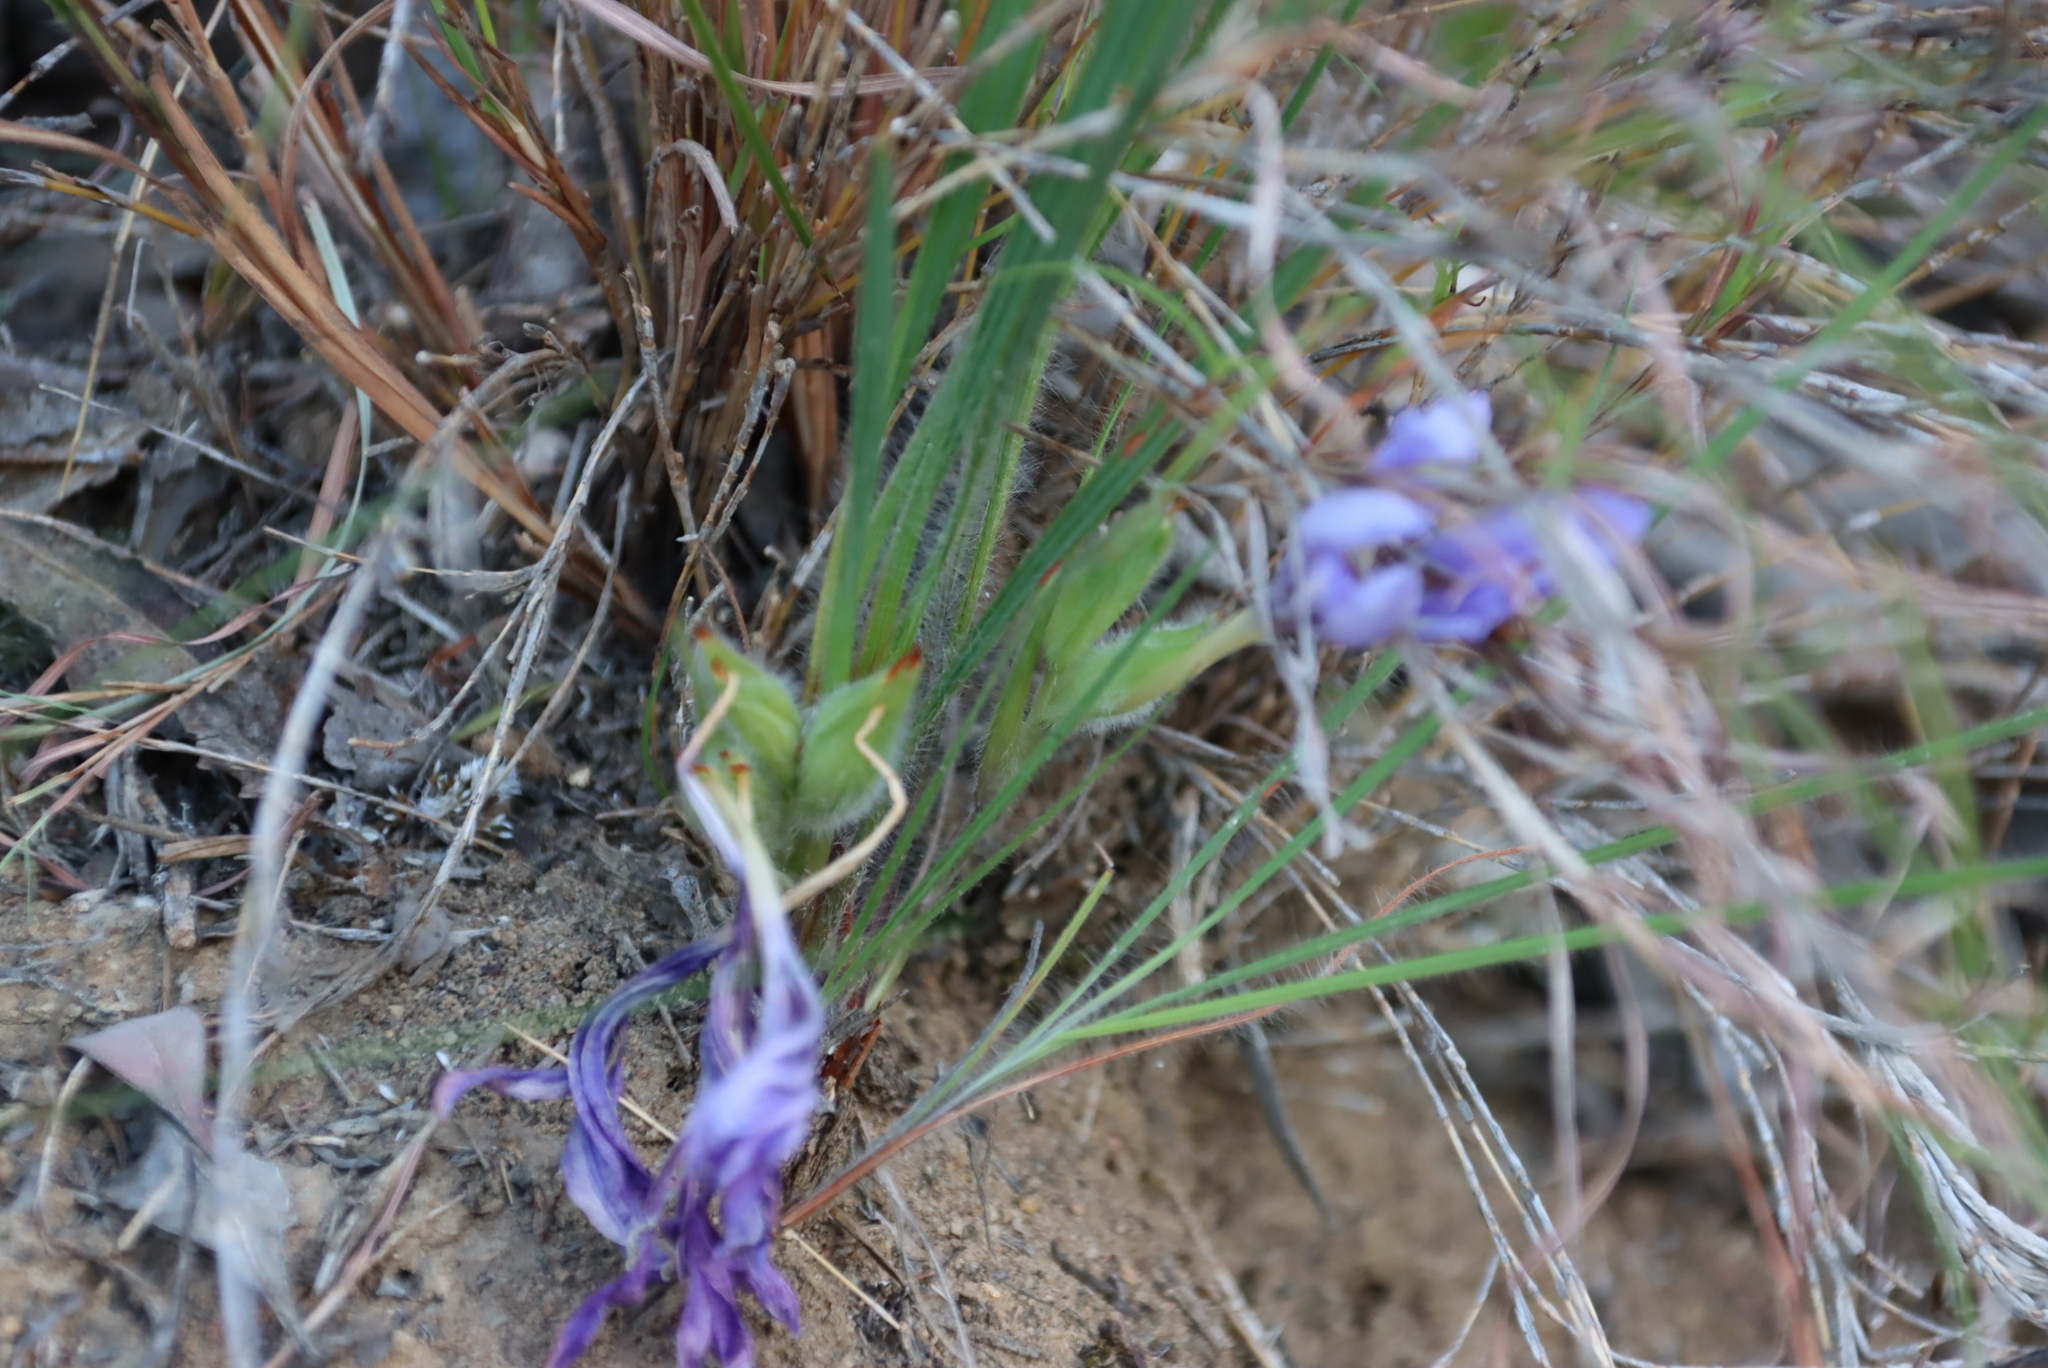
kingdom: Plantae
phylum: Tracheophyta
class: Liliopsida
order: Asparagales
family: Iridaceae
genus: Babiana
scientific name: Babiana sambucina
